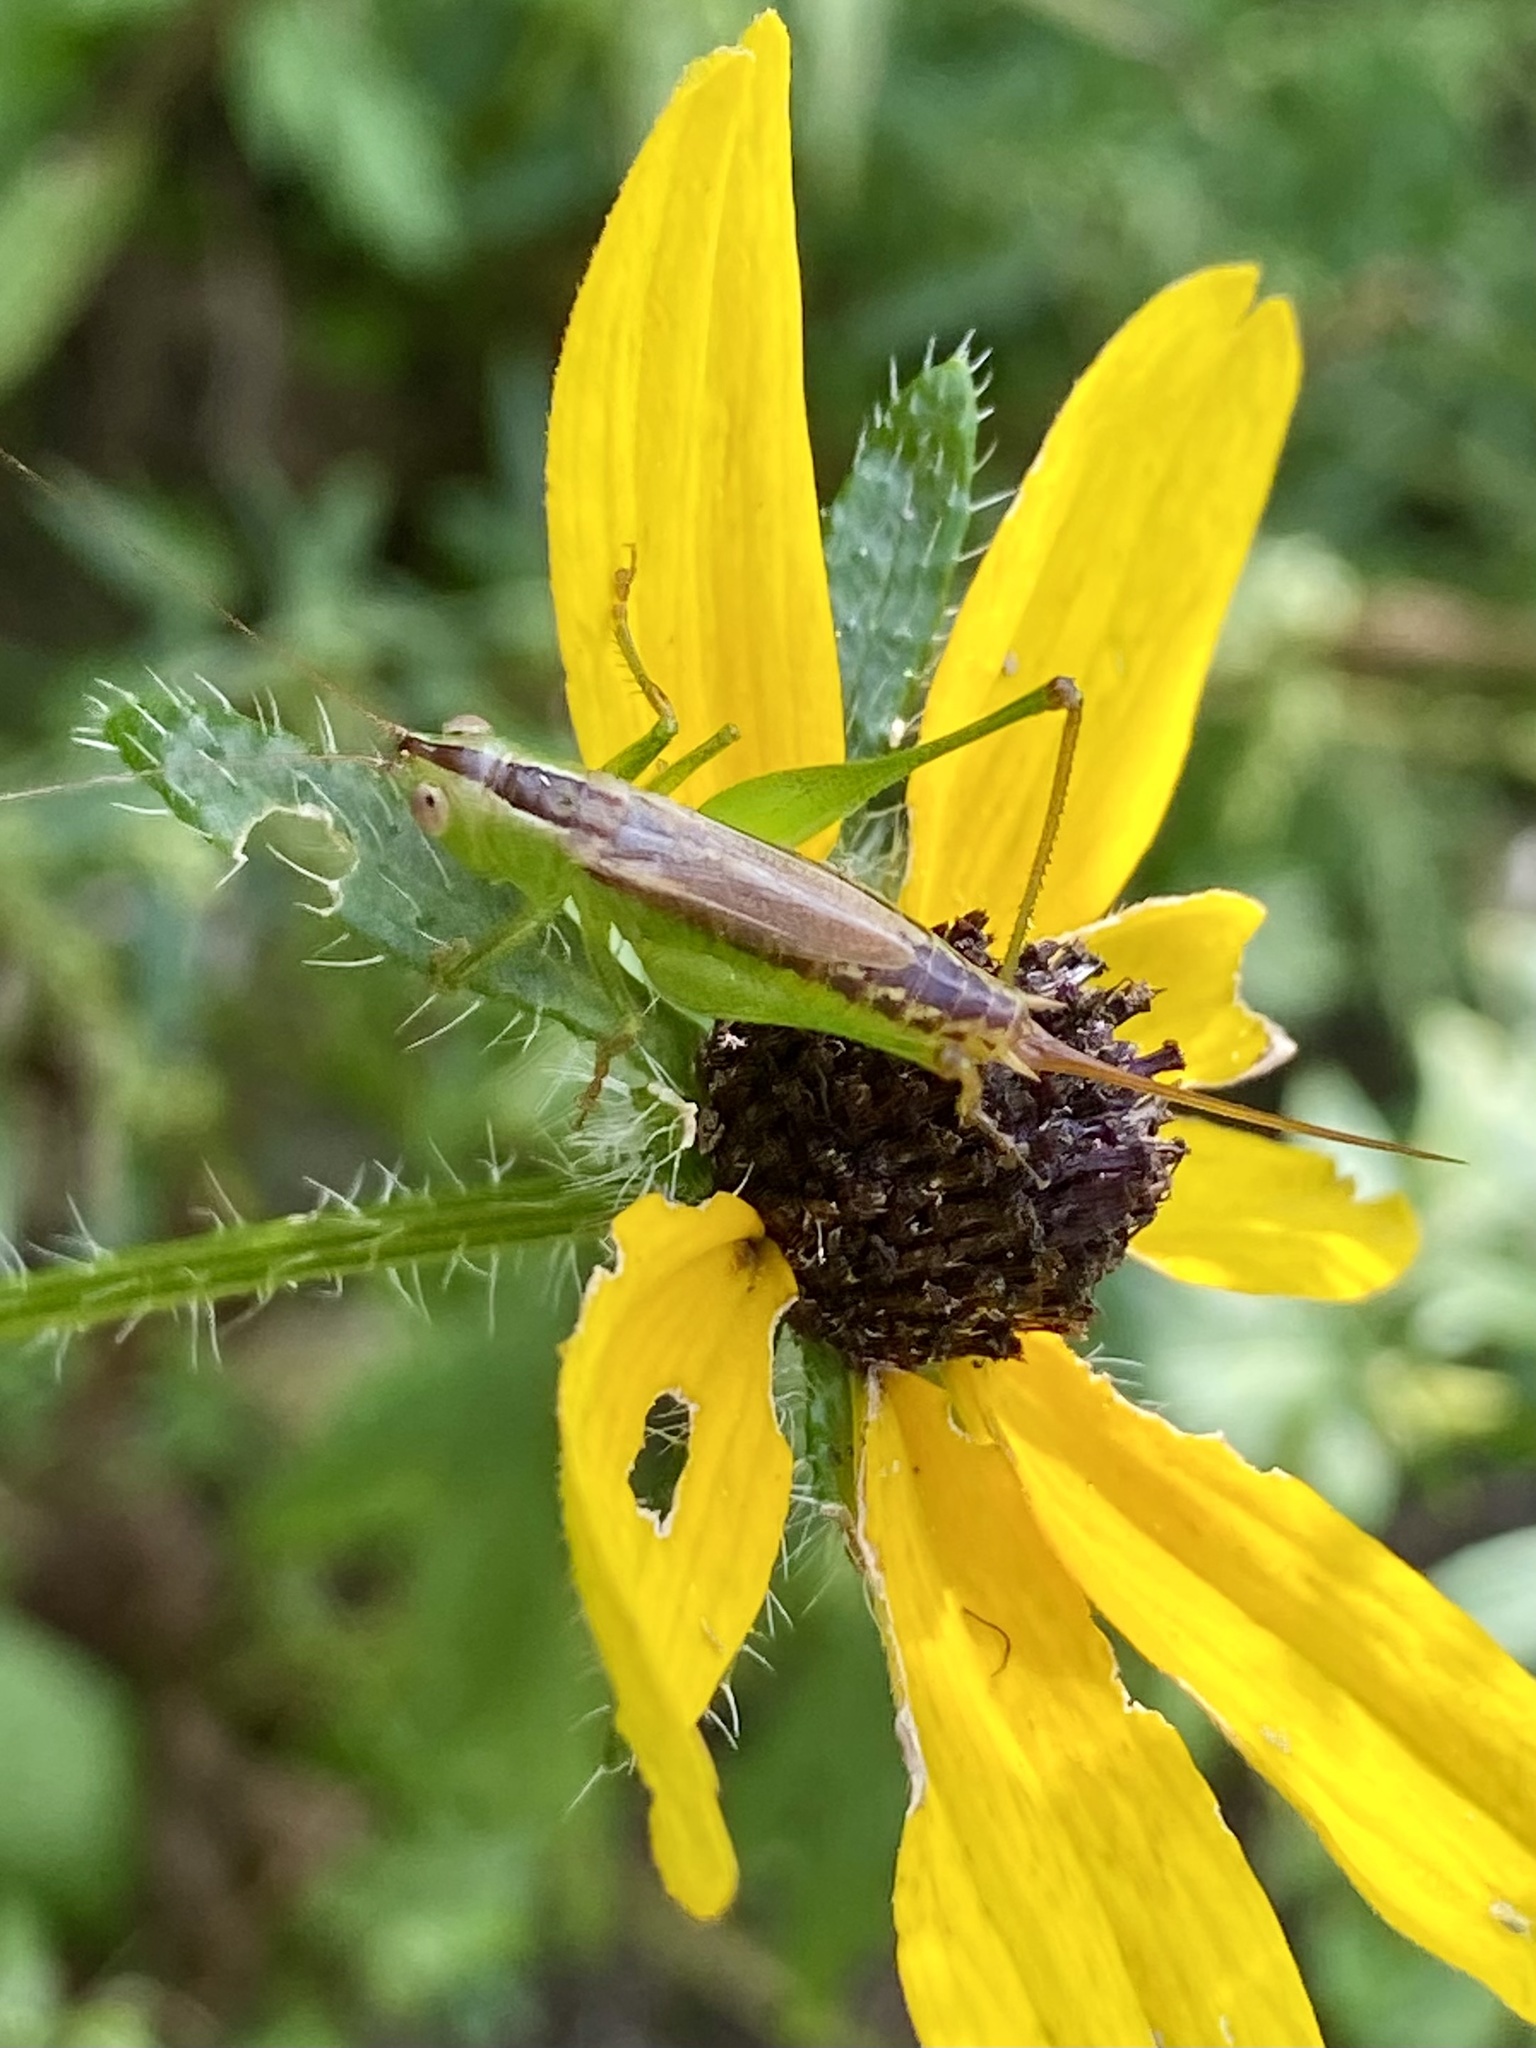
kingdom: Animalia
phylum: Arthropoda
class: Insecta
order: Orthoptera
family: Tettigoniidae
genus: Conocephalus
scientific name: Conocephalus brevipennis
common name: Short-winged meadow katydid
